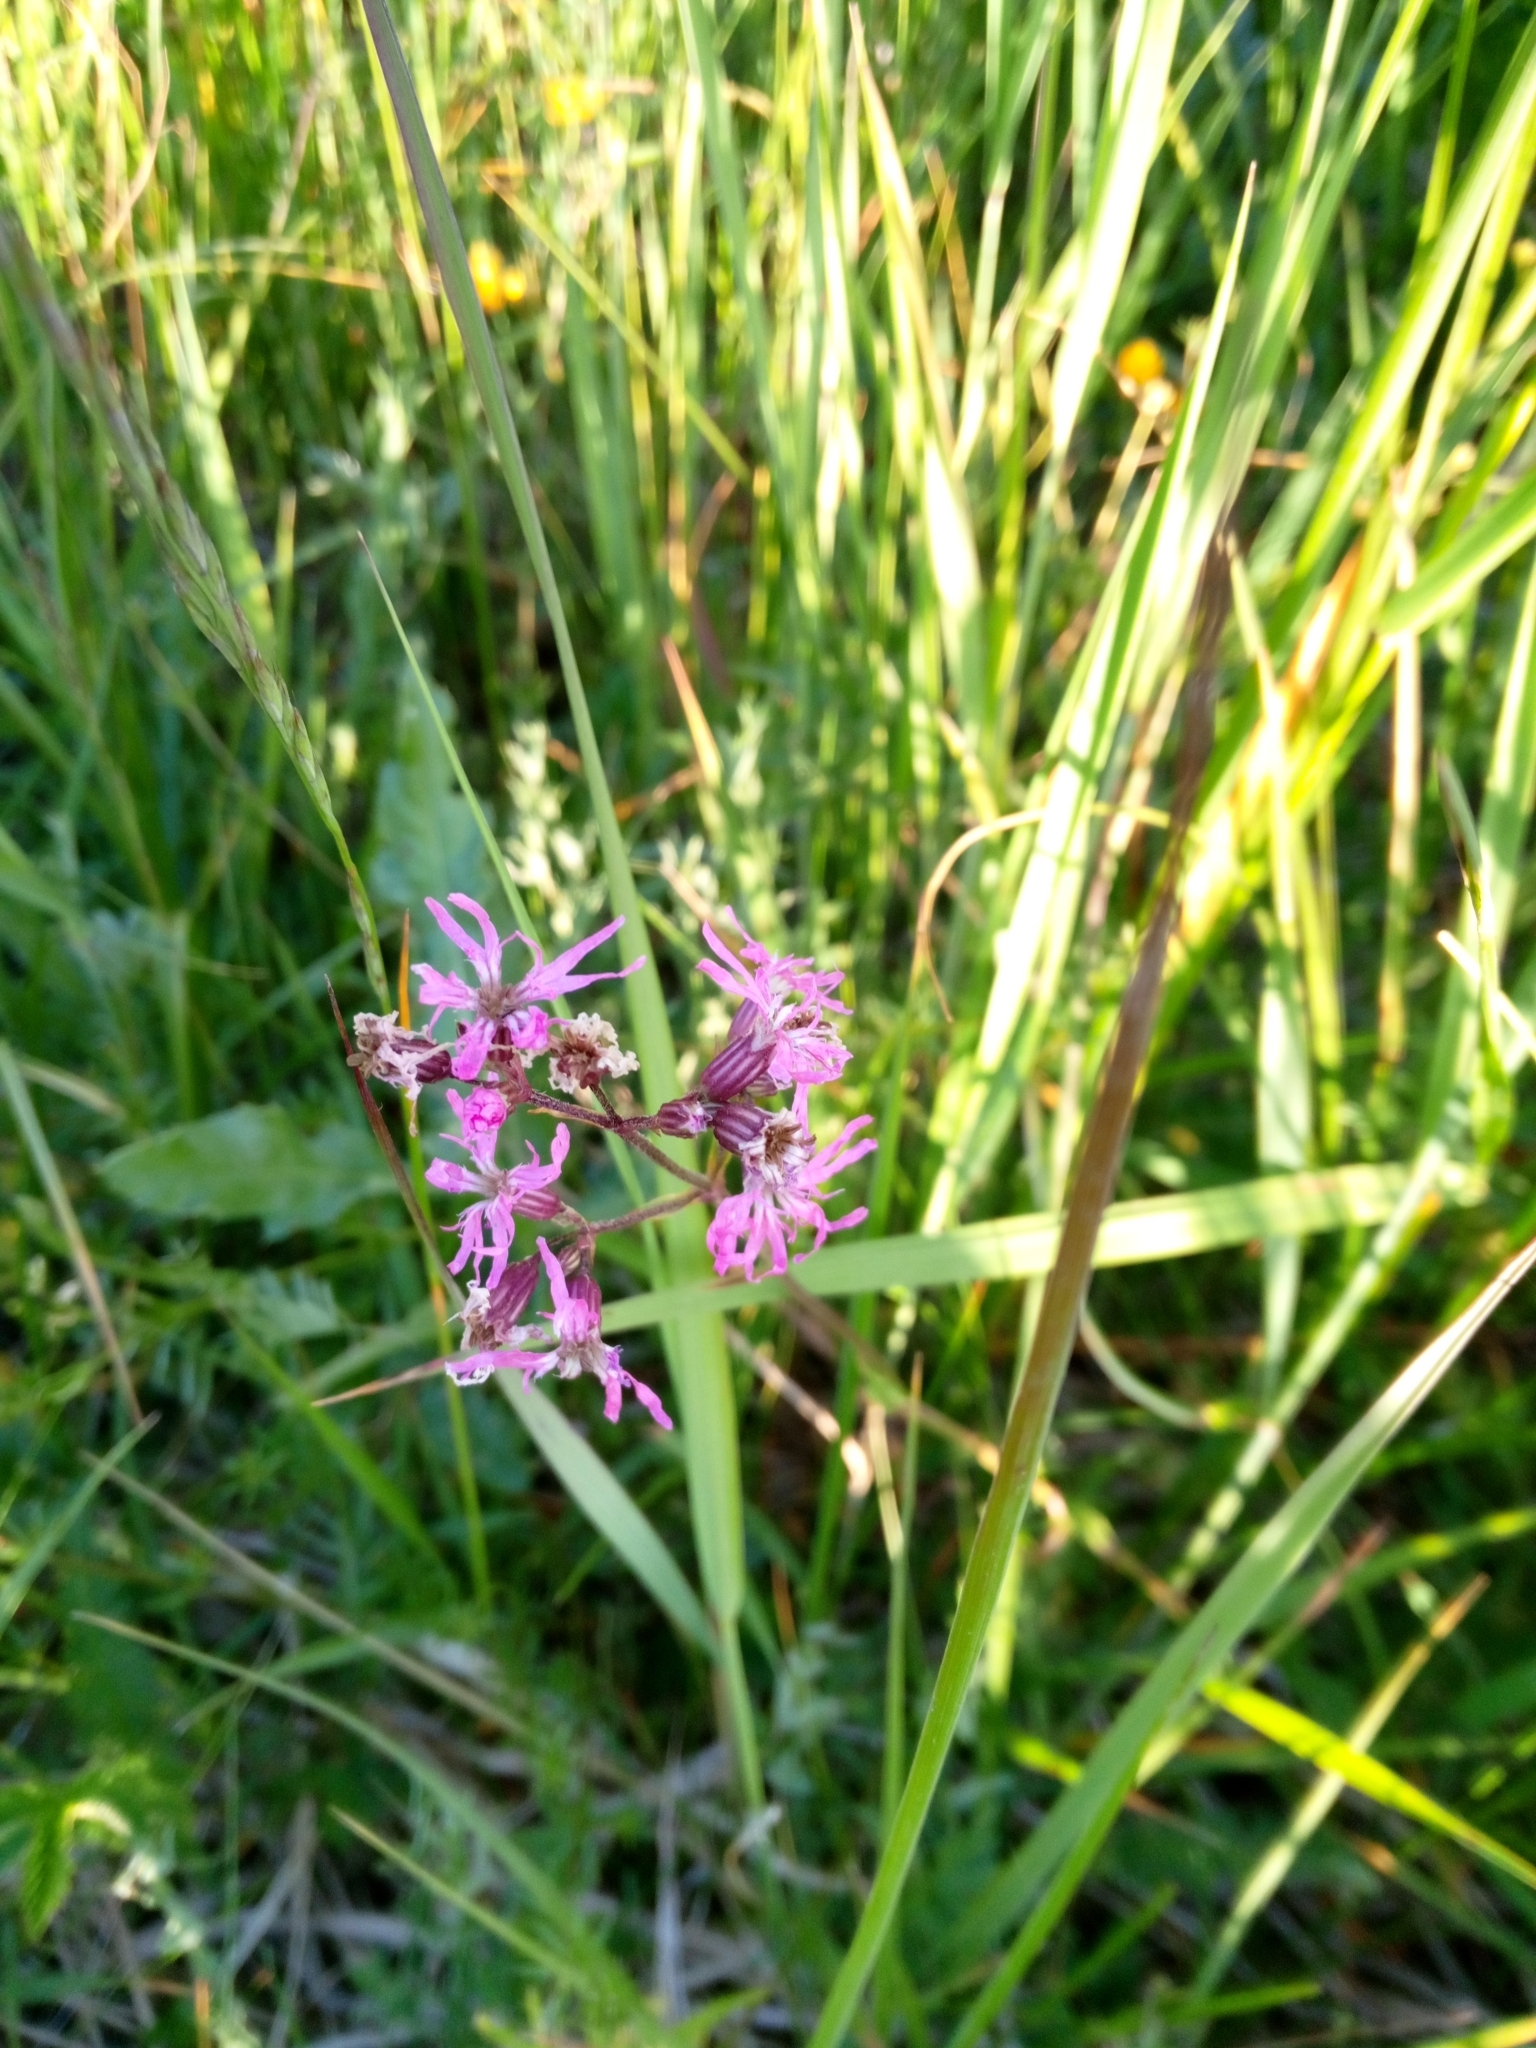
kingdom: Plantae
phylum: Tracheophyta
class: Magnoliopsida
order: Caryophyllales
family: Caryophyllaceae
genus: Silene
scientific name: Silene flos-cuculi
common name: Ragged-robin
